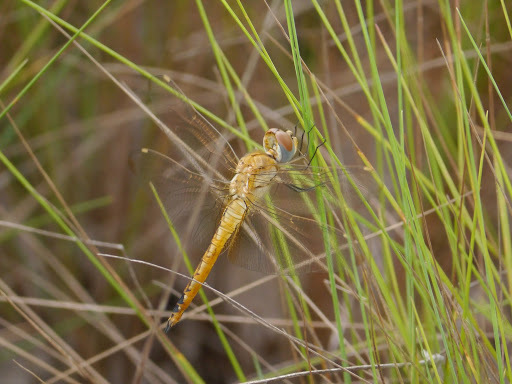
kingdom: Animalia
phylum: Arthropoda
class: Insecta
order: Odonata
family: Libellulidae
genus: Pantala
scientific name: Pantala flavescens
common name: Wandering glider
